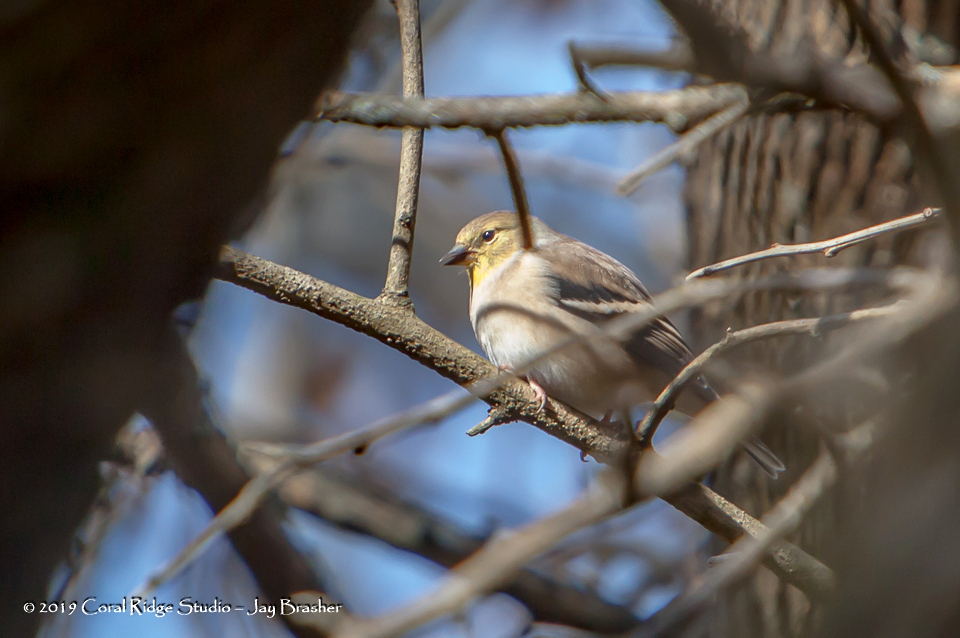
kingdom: Animalia
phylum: Chordata
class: Aves
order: Passeriformes
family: Fringillidae
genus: Spinus
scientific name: Spinus tristis
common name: American goldfinch
